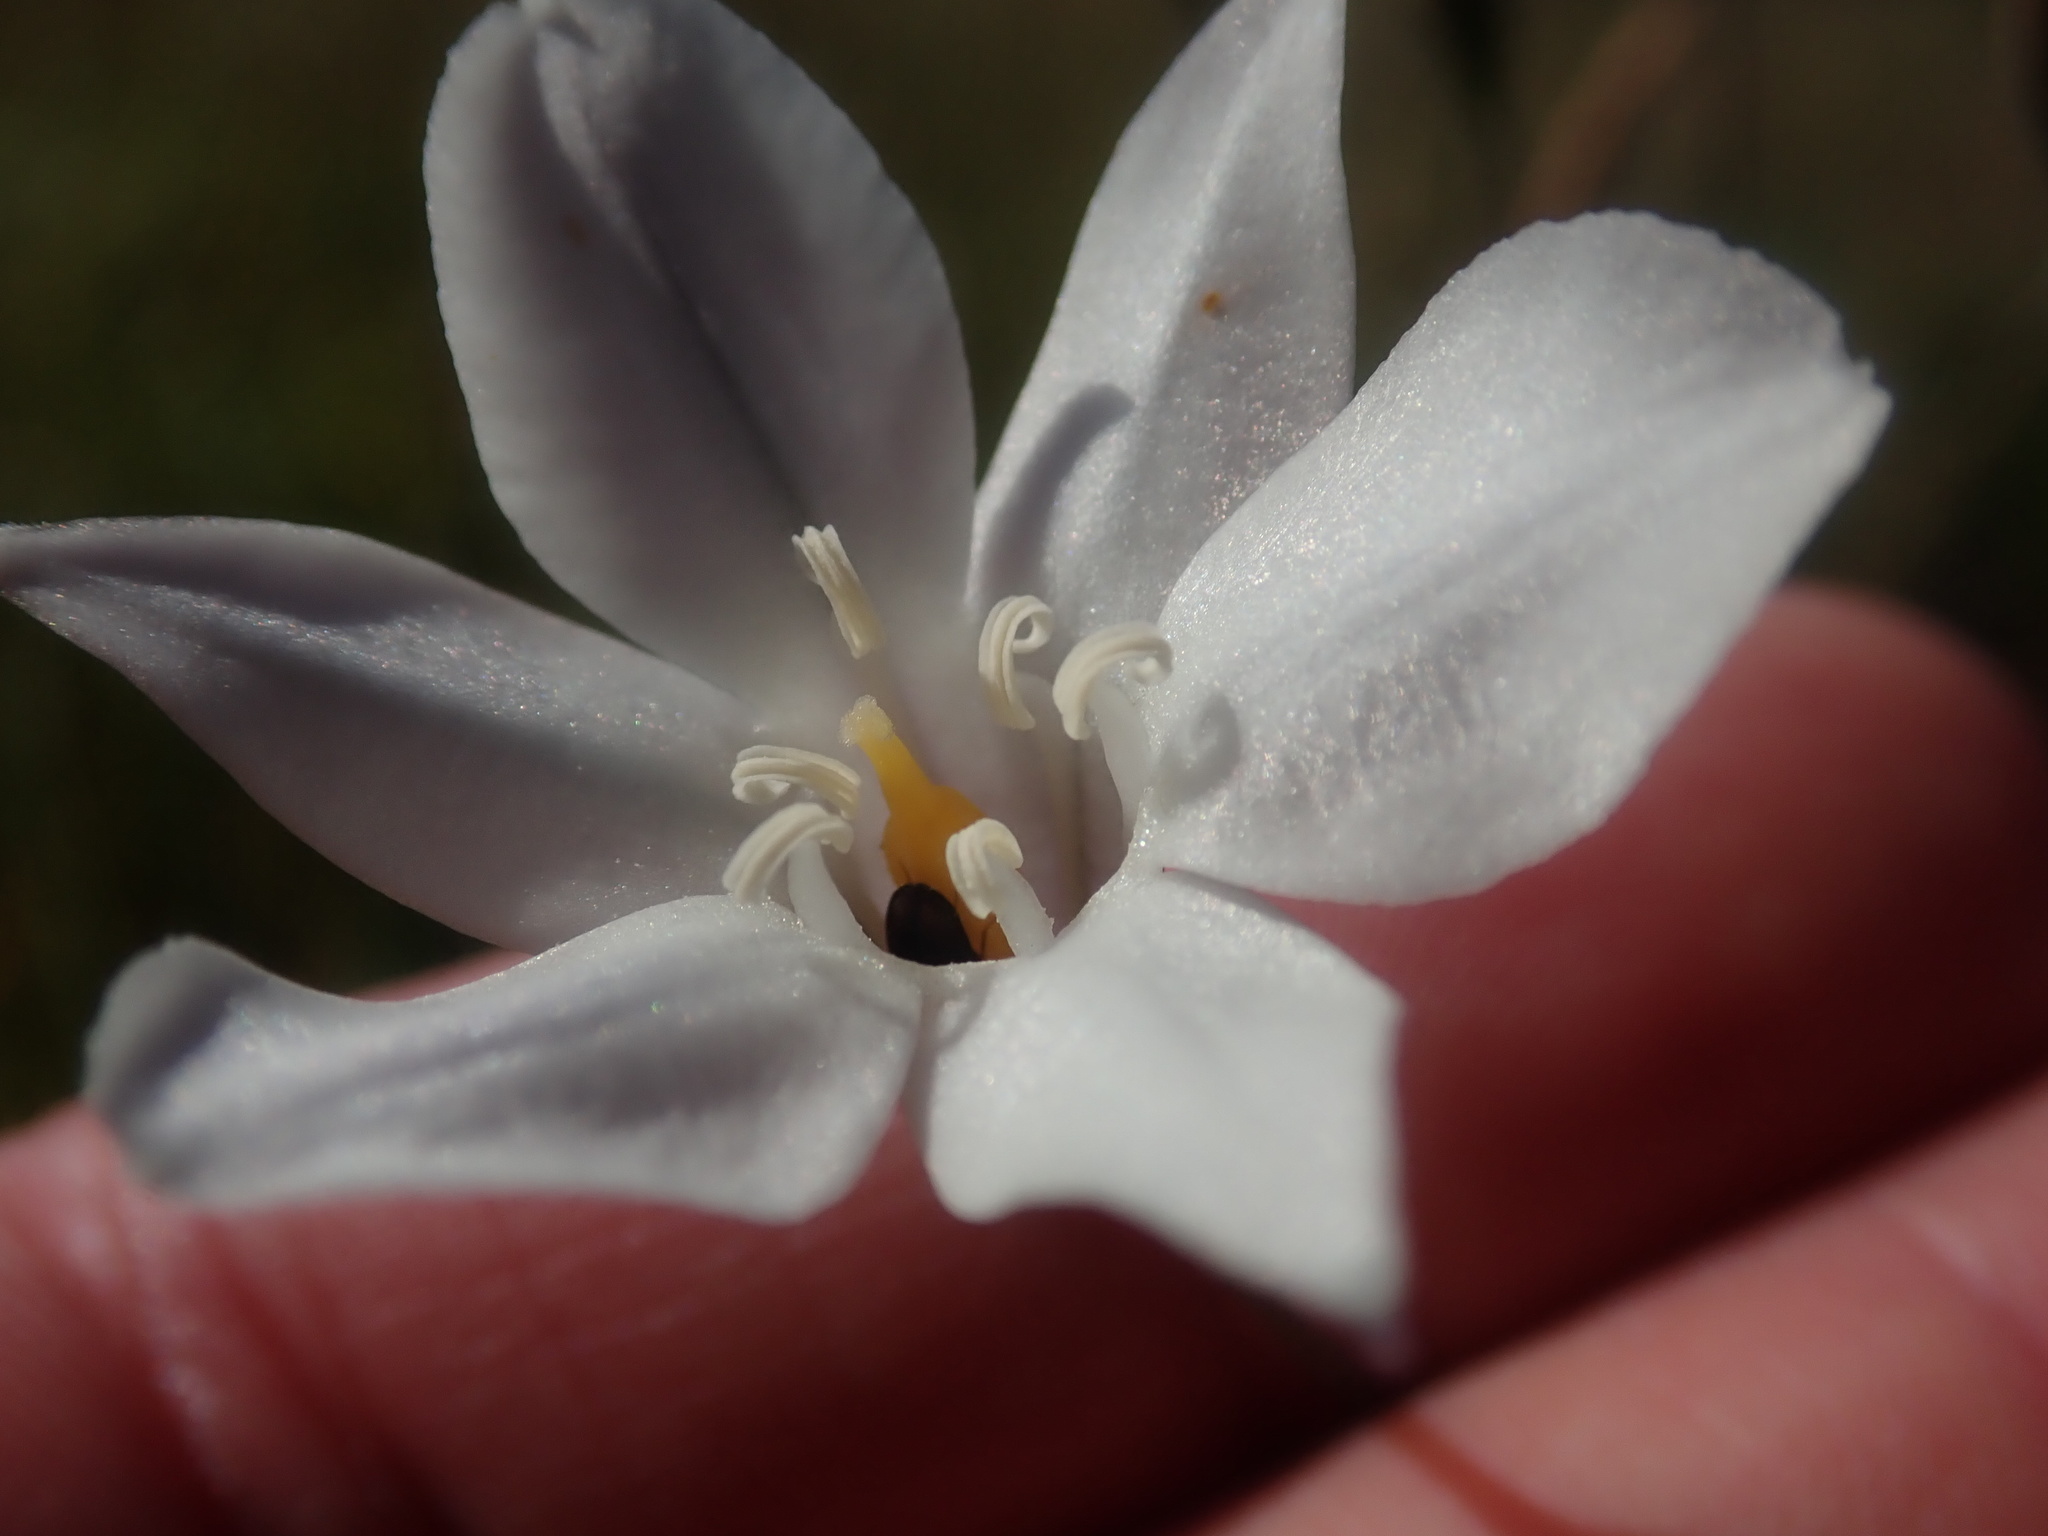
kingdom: Plantae
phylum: Tracheophyta
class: Liliopsida
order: Asparagales
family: Asparagaceae
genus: Triteleia
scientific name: Triteleia peduncularis
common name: Long-ray brodiaea
